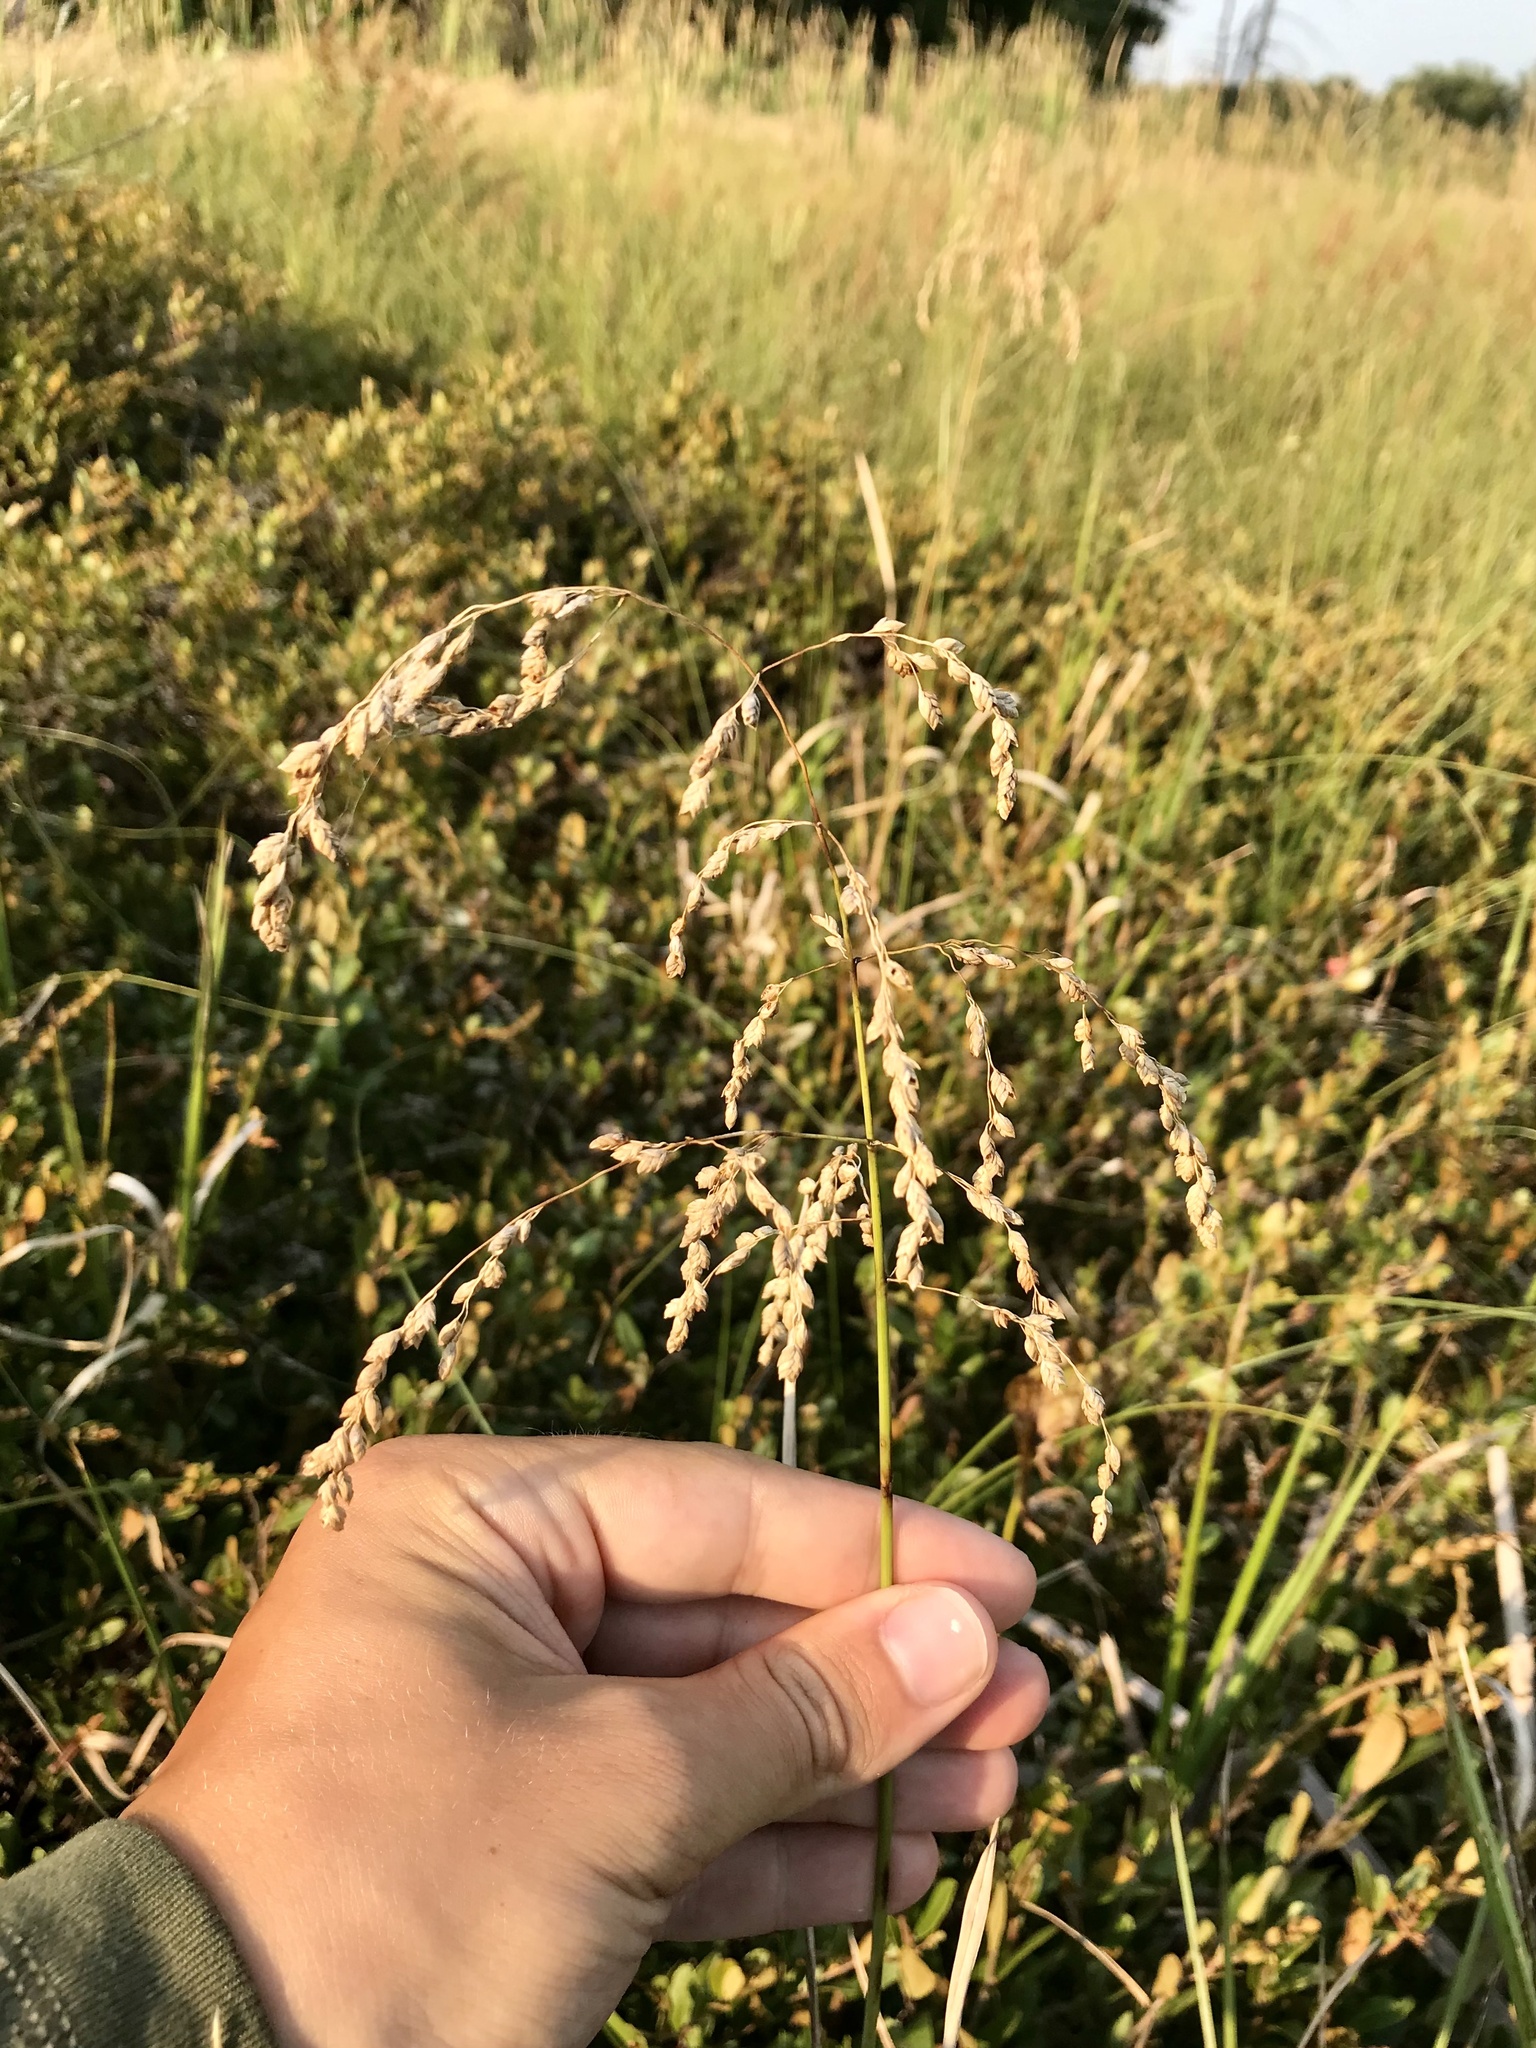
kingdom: Plantae
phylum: Tracheophyta
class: Liliopsida
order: Poales
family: Poaceae
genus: Glyceria
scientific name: Glyceria canadensis
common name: Canada mannagrass
